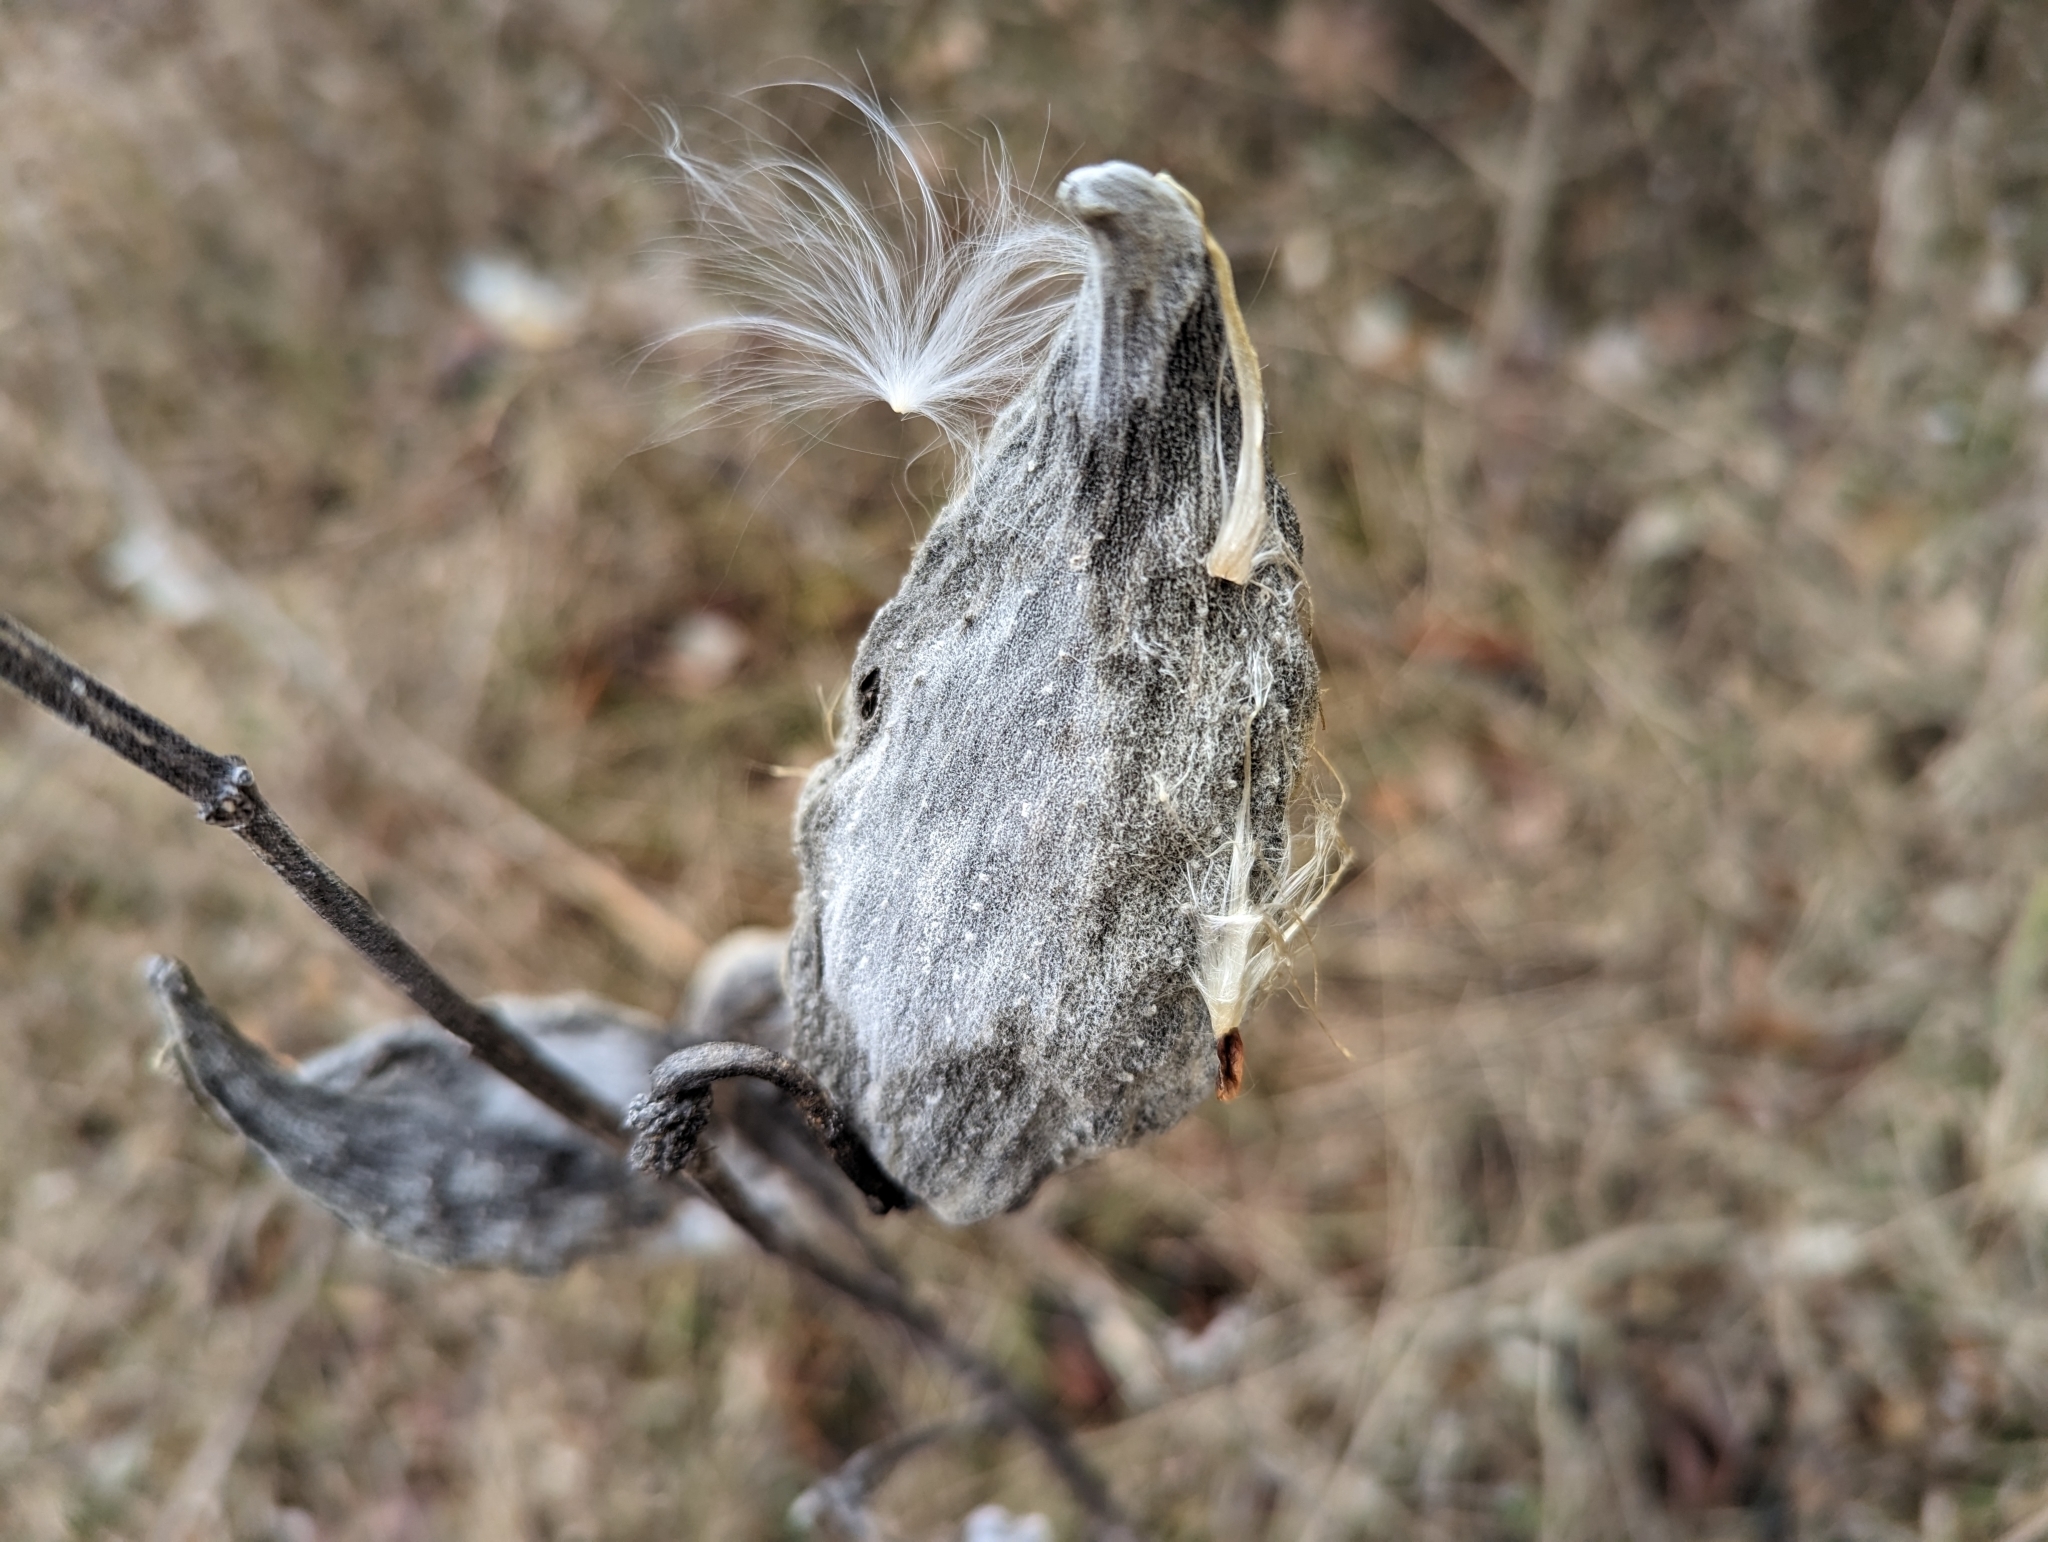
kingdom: Plantae
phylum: Tracheophyta
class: Magnoliopsida
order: Gentianales
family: Apocynaceae
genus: Asclepias
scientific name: Asclepias syriaca
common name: Common milkweed
